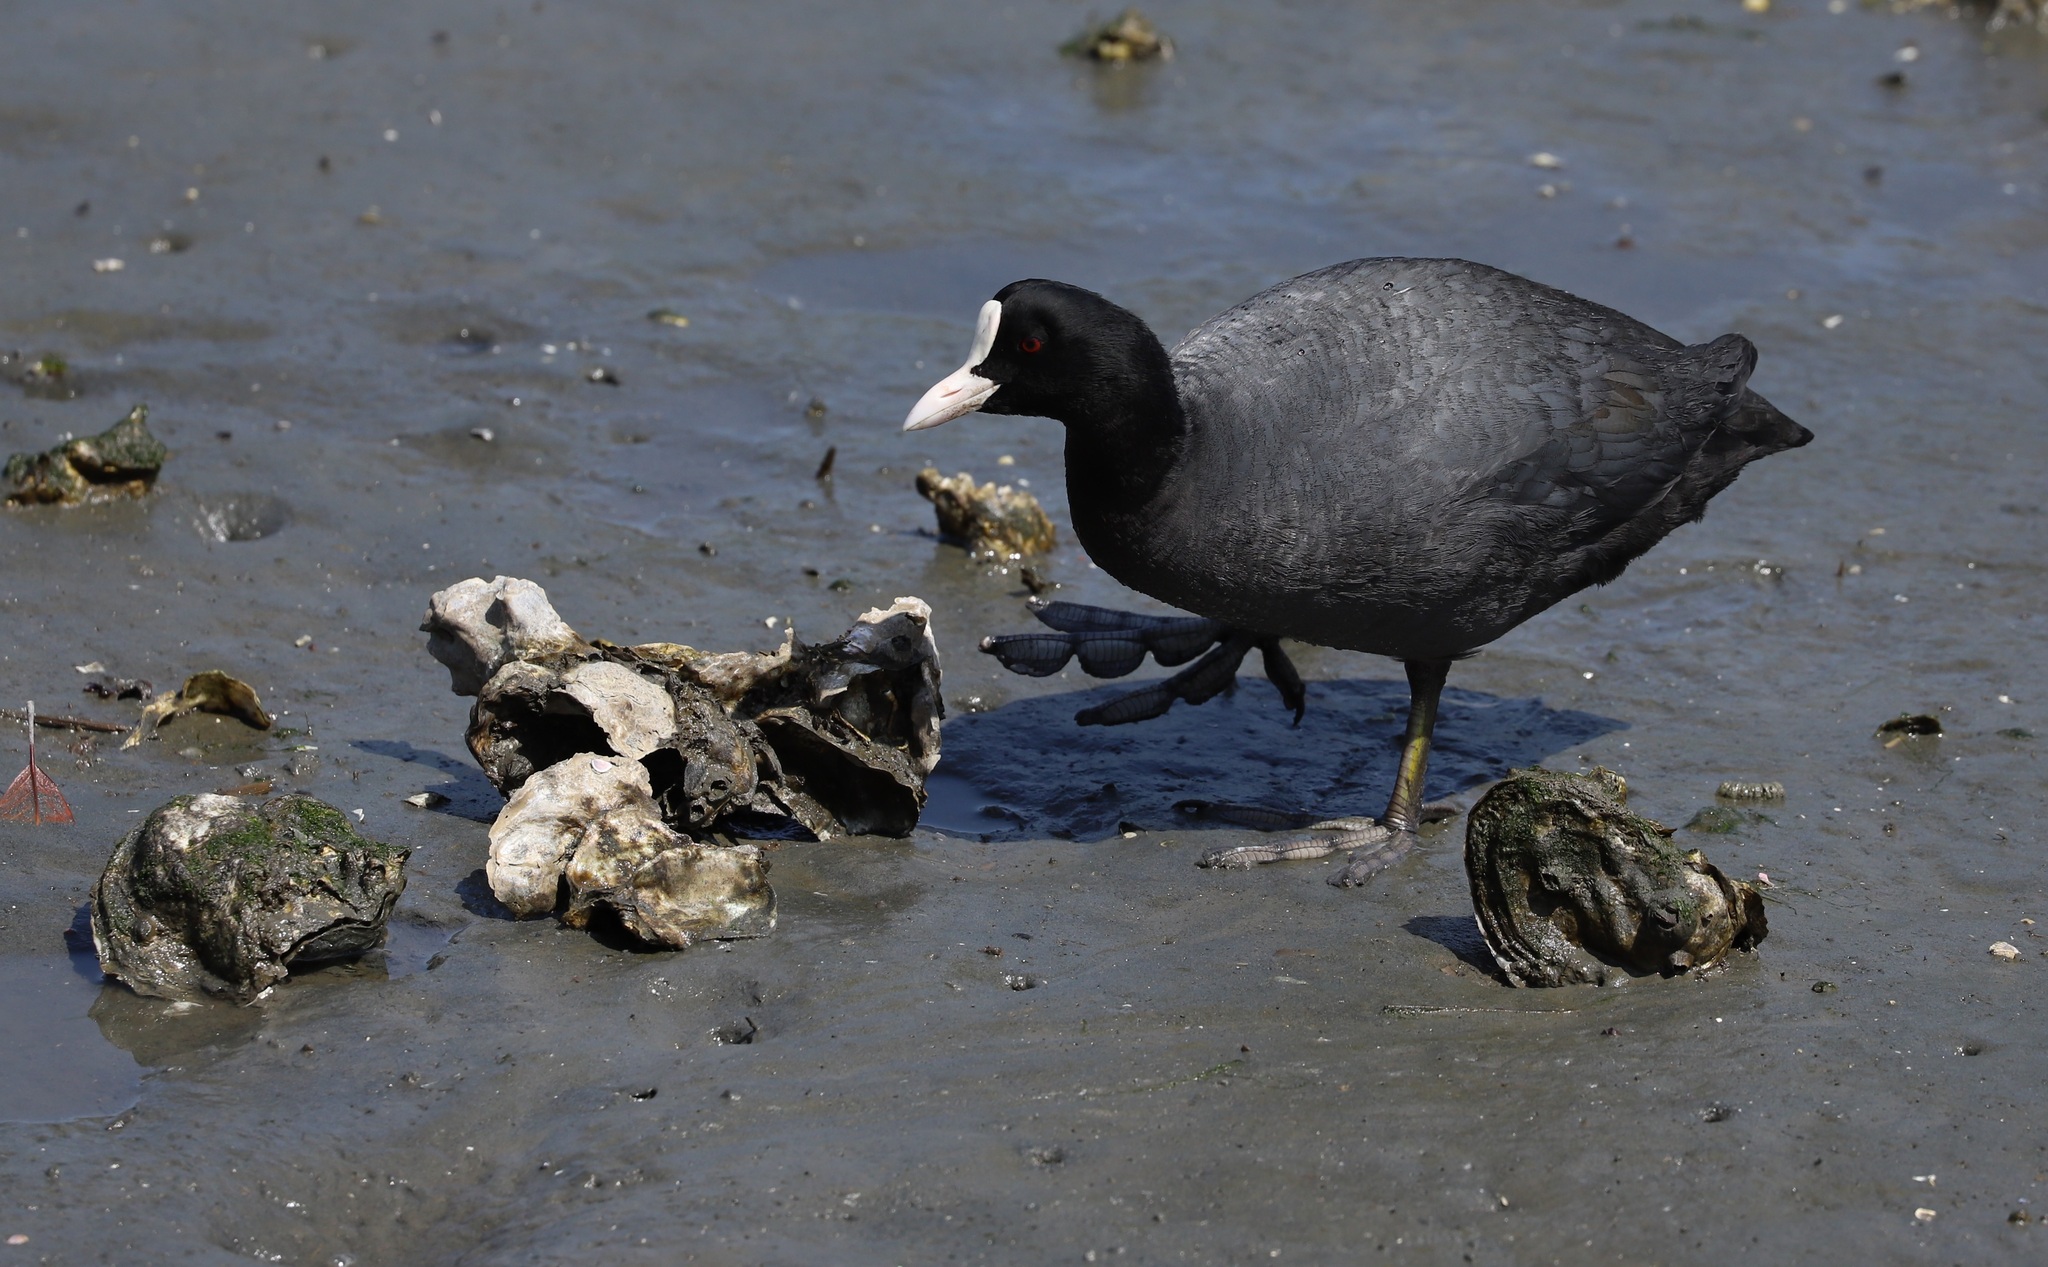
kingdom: Animalia
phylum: Chordata
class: Aves
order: Gruiformes
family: Rallidae
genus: Fulica
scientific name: Fulica atra
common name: Eurasian coot
